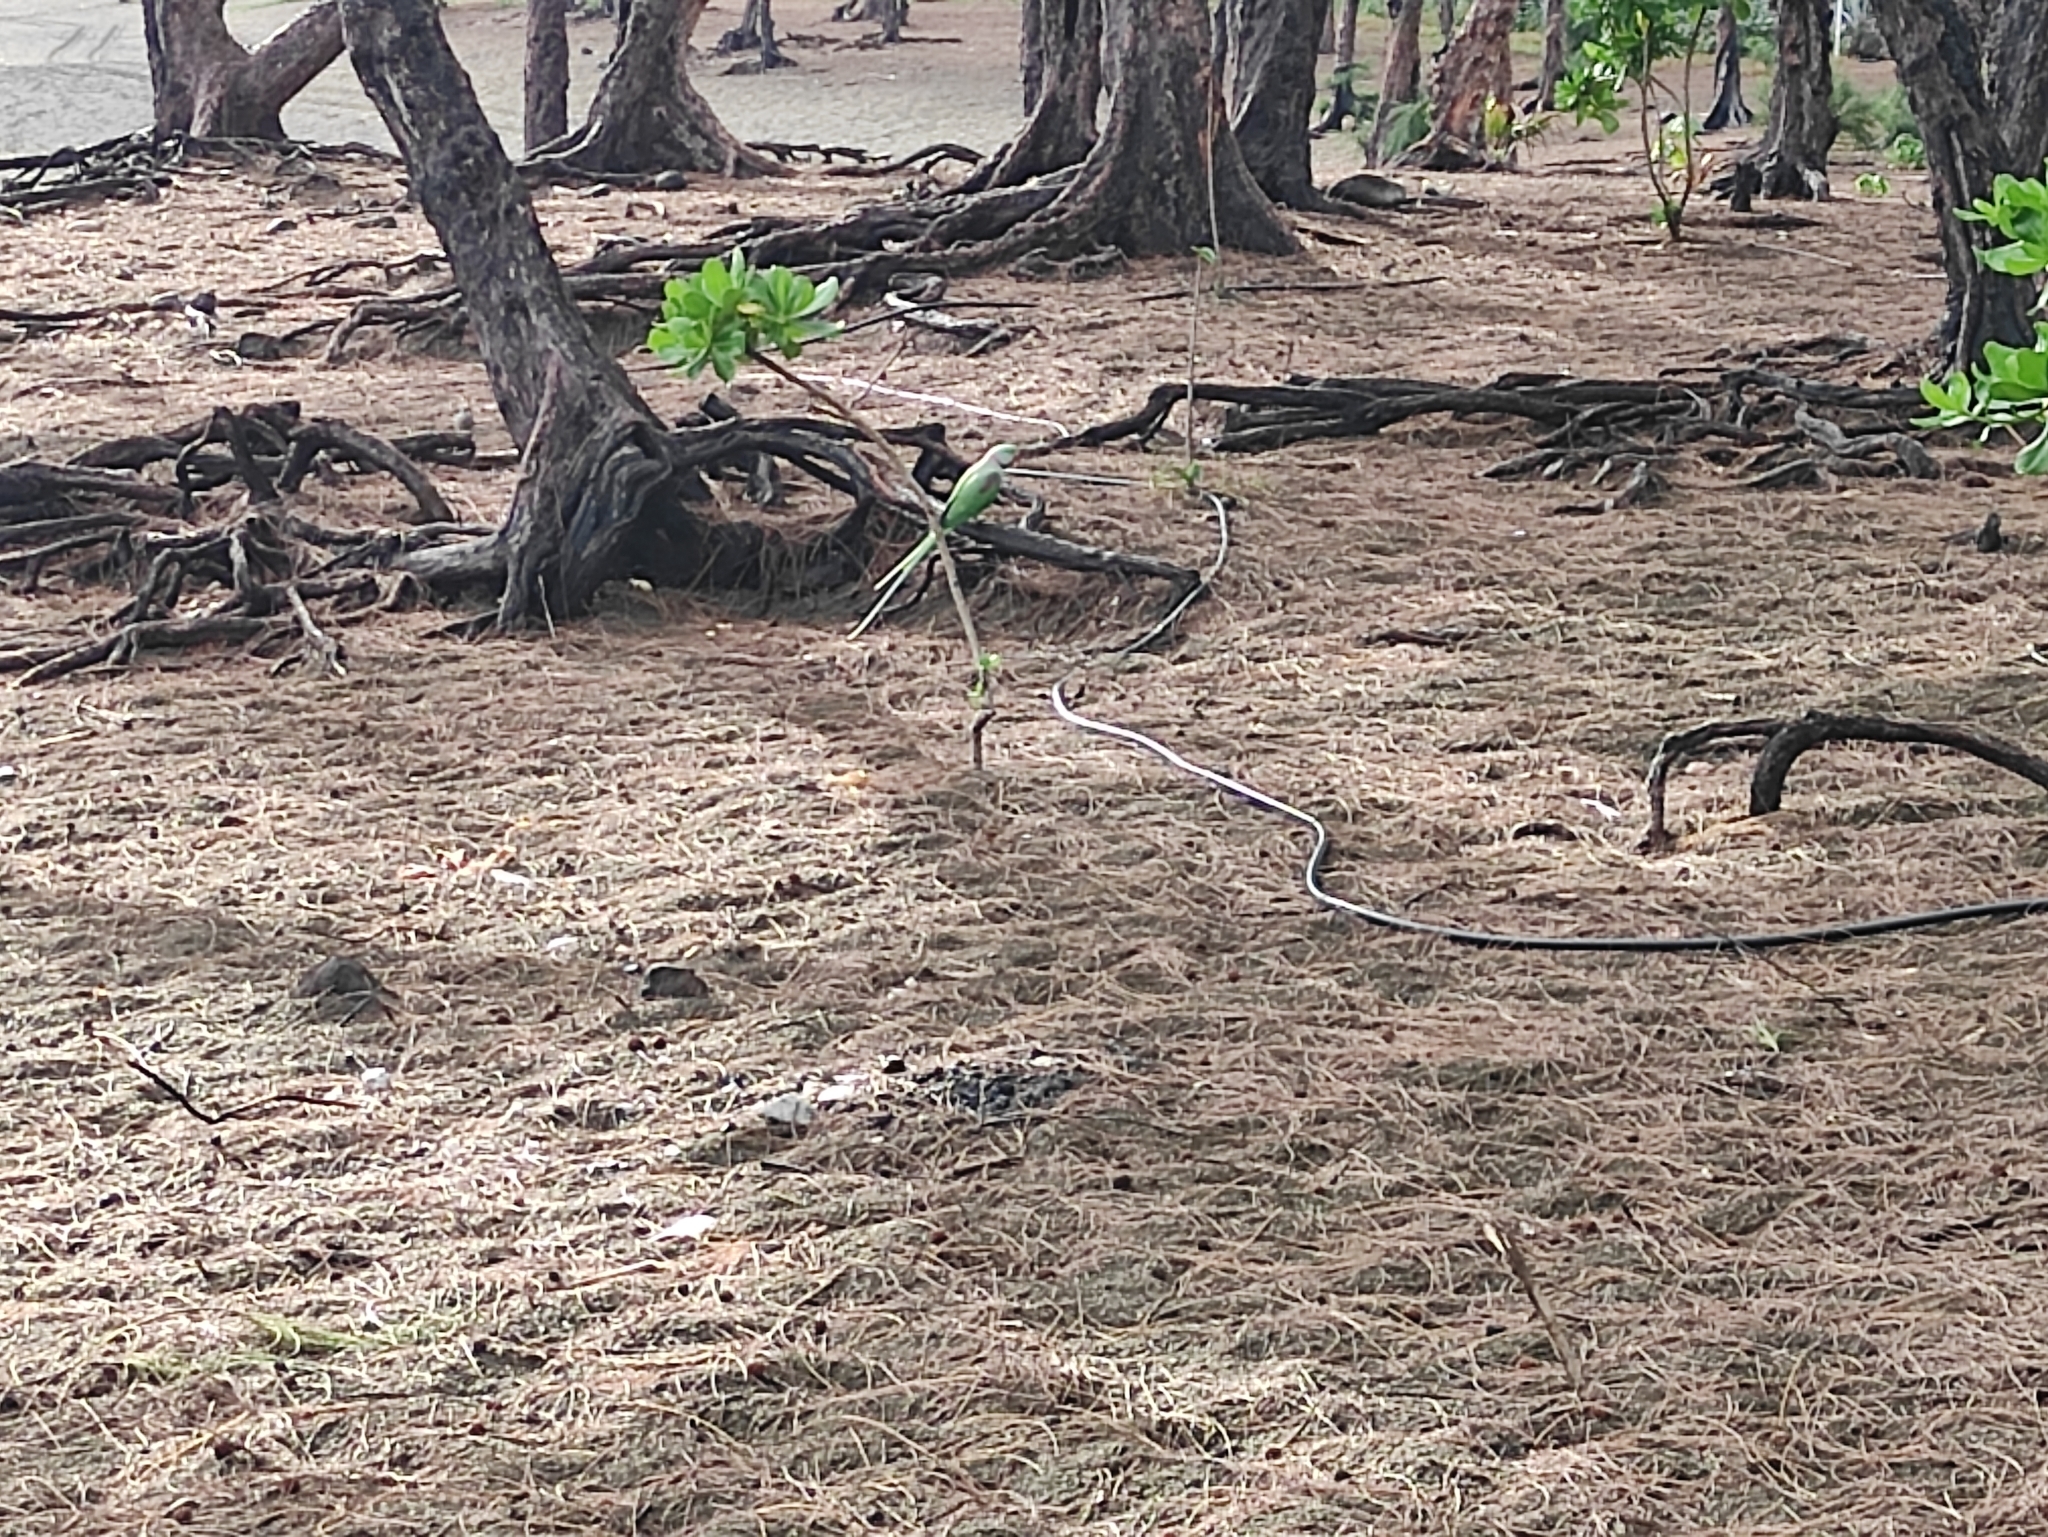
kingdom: Animalia
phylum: Chordata
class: Aves
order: Psittaciformes
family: Psittacidae
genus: Psittacula
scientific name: Psittacula krameri
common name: Rose-ringed parakeet
